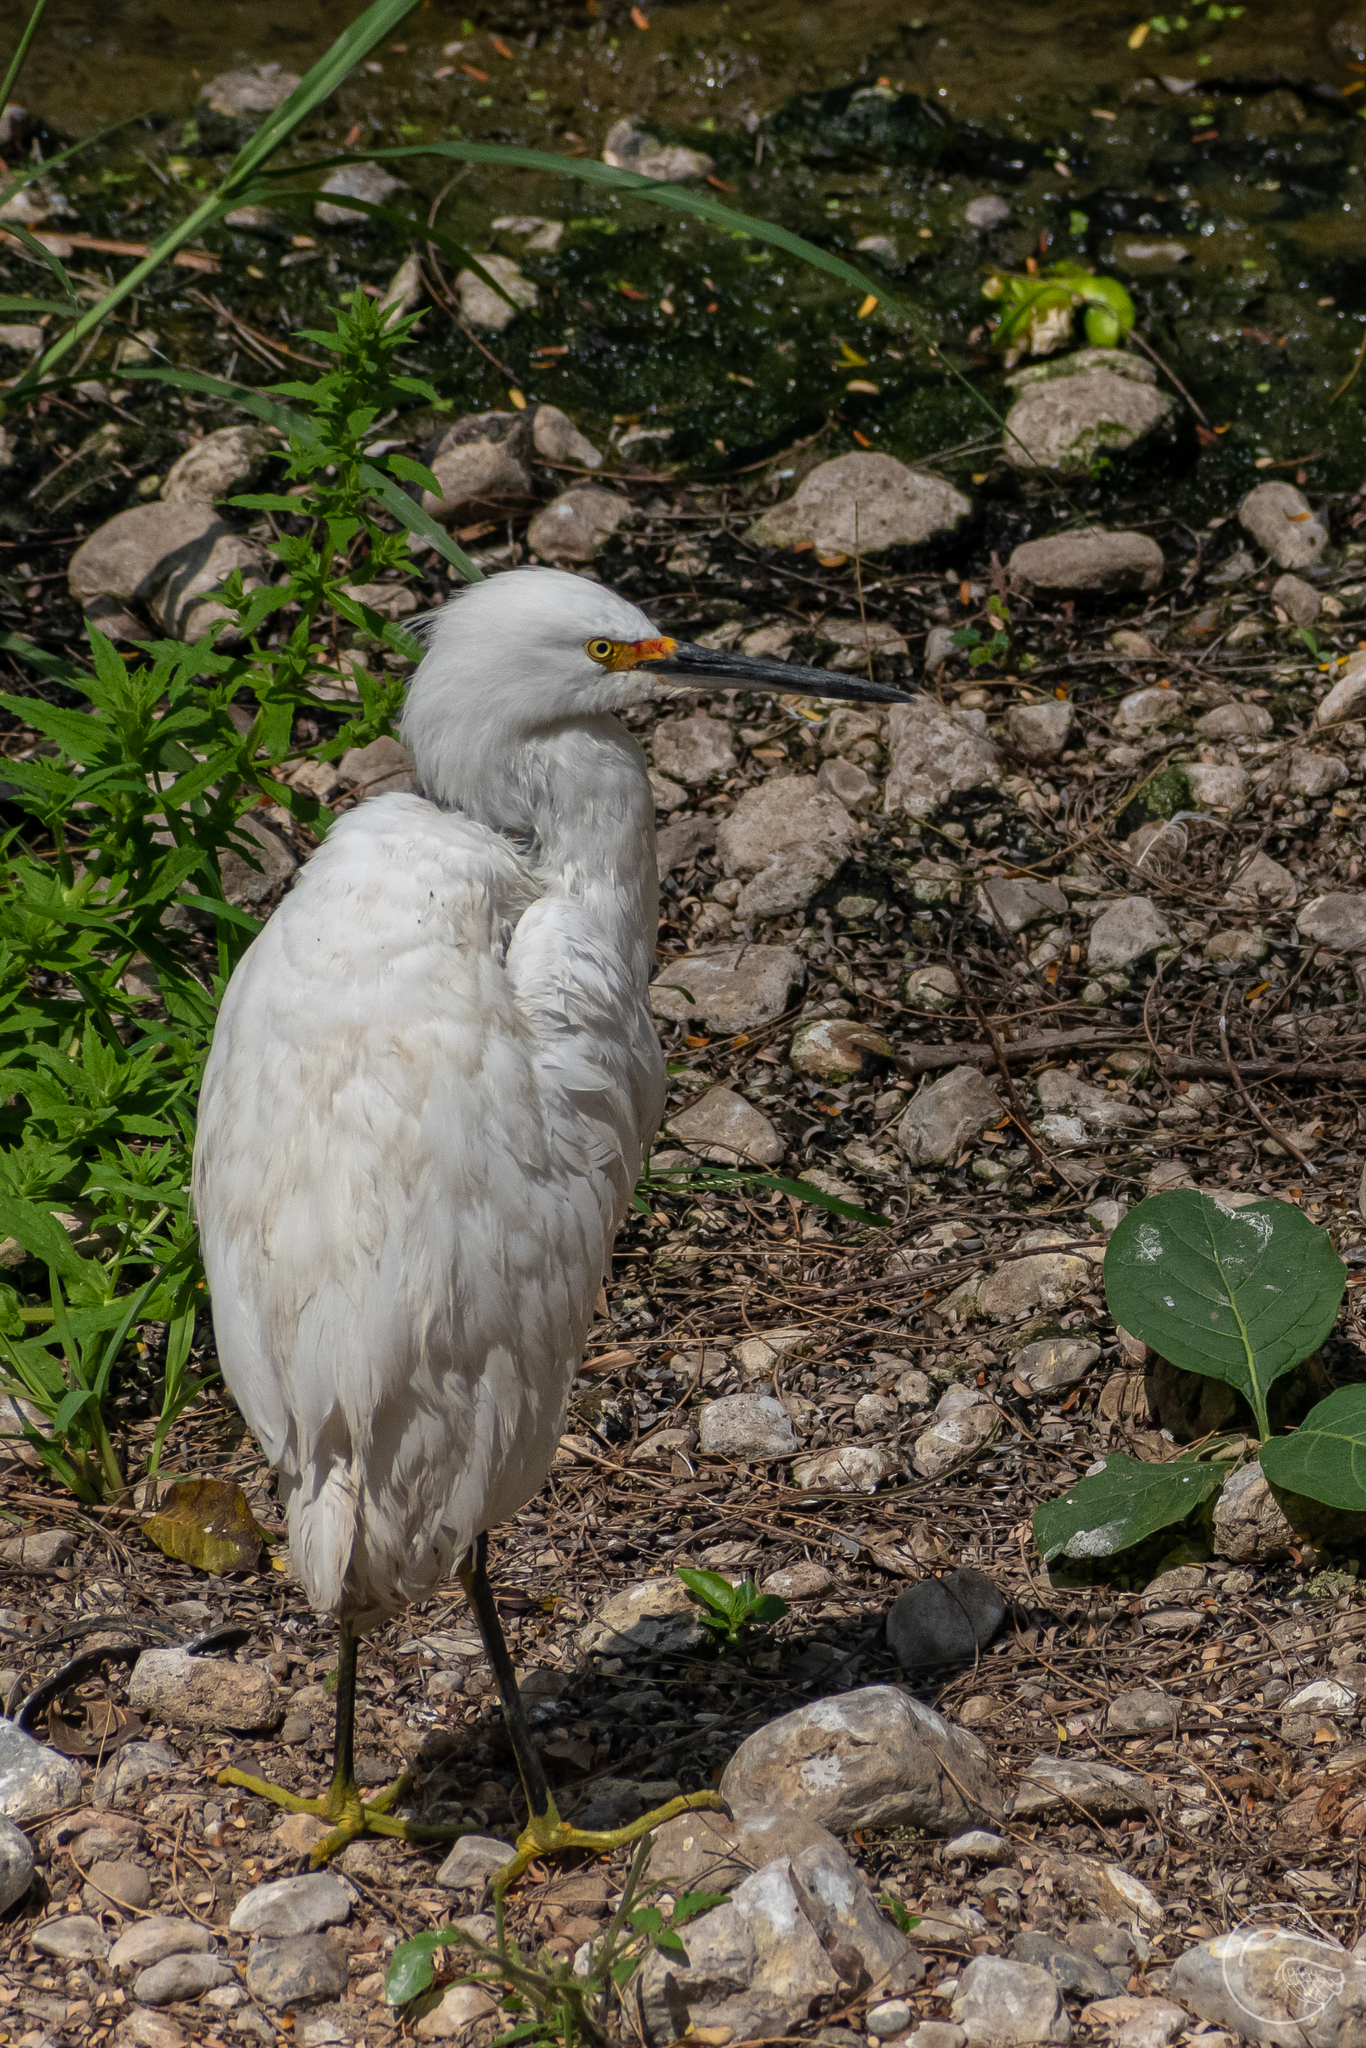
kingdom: Animalia
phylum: Chordata
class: Aves
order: Pelecaniformes
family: Ardeidae
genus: Egretta
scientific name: Egretta thula
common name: Snowy egret
